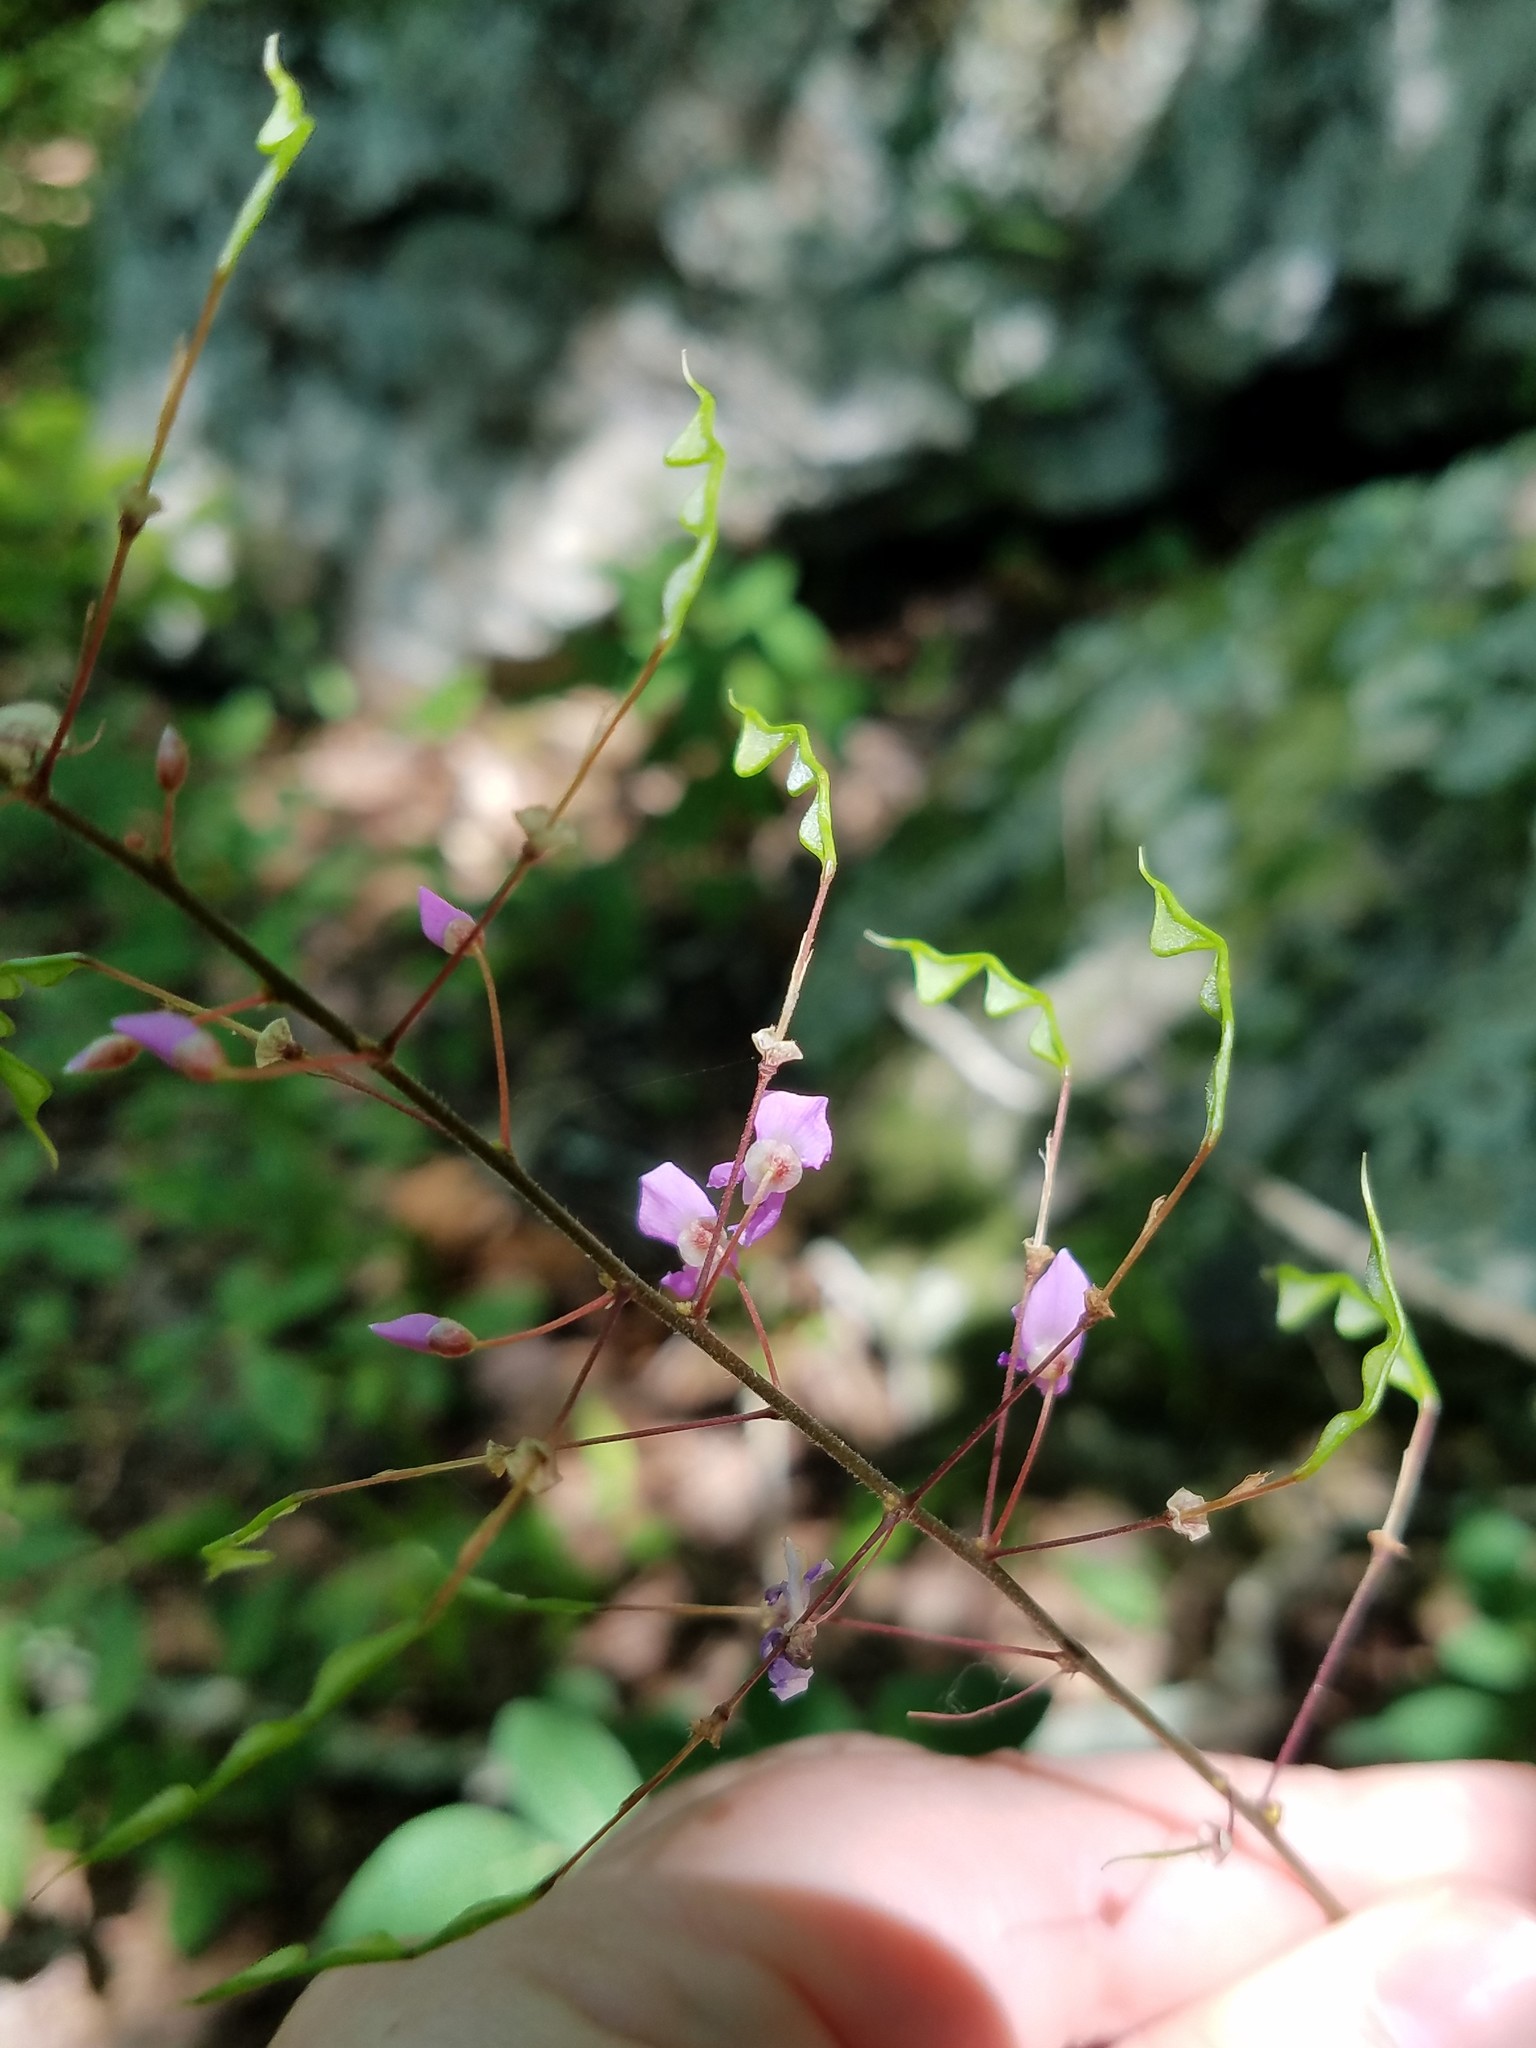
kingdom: Plantae
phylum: Tracheophyta
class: Magnoliopsida
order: Fabales
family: Fabaceae
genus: Hylodesmum
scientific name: Hylodesmum nudiflorum
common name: Bare-stemmed tick-trefoil
